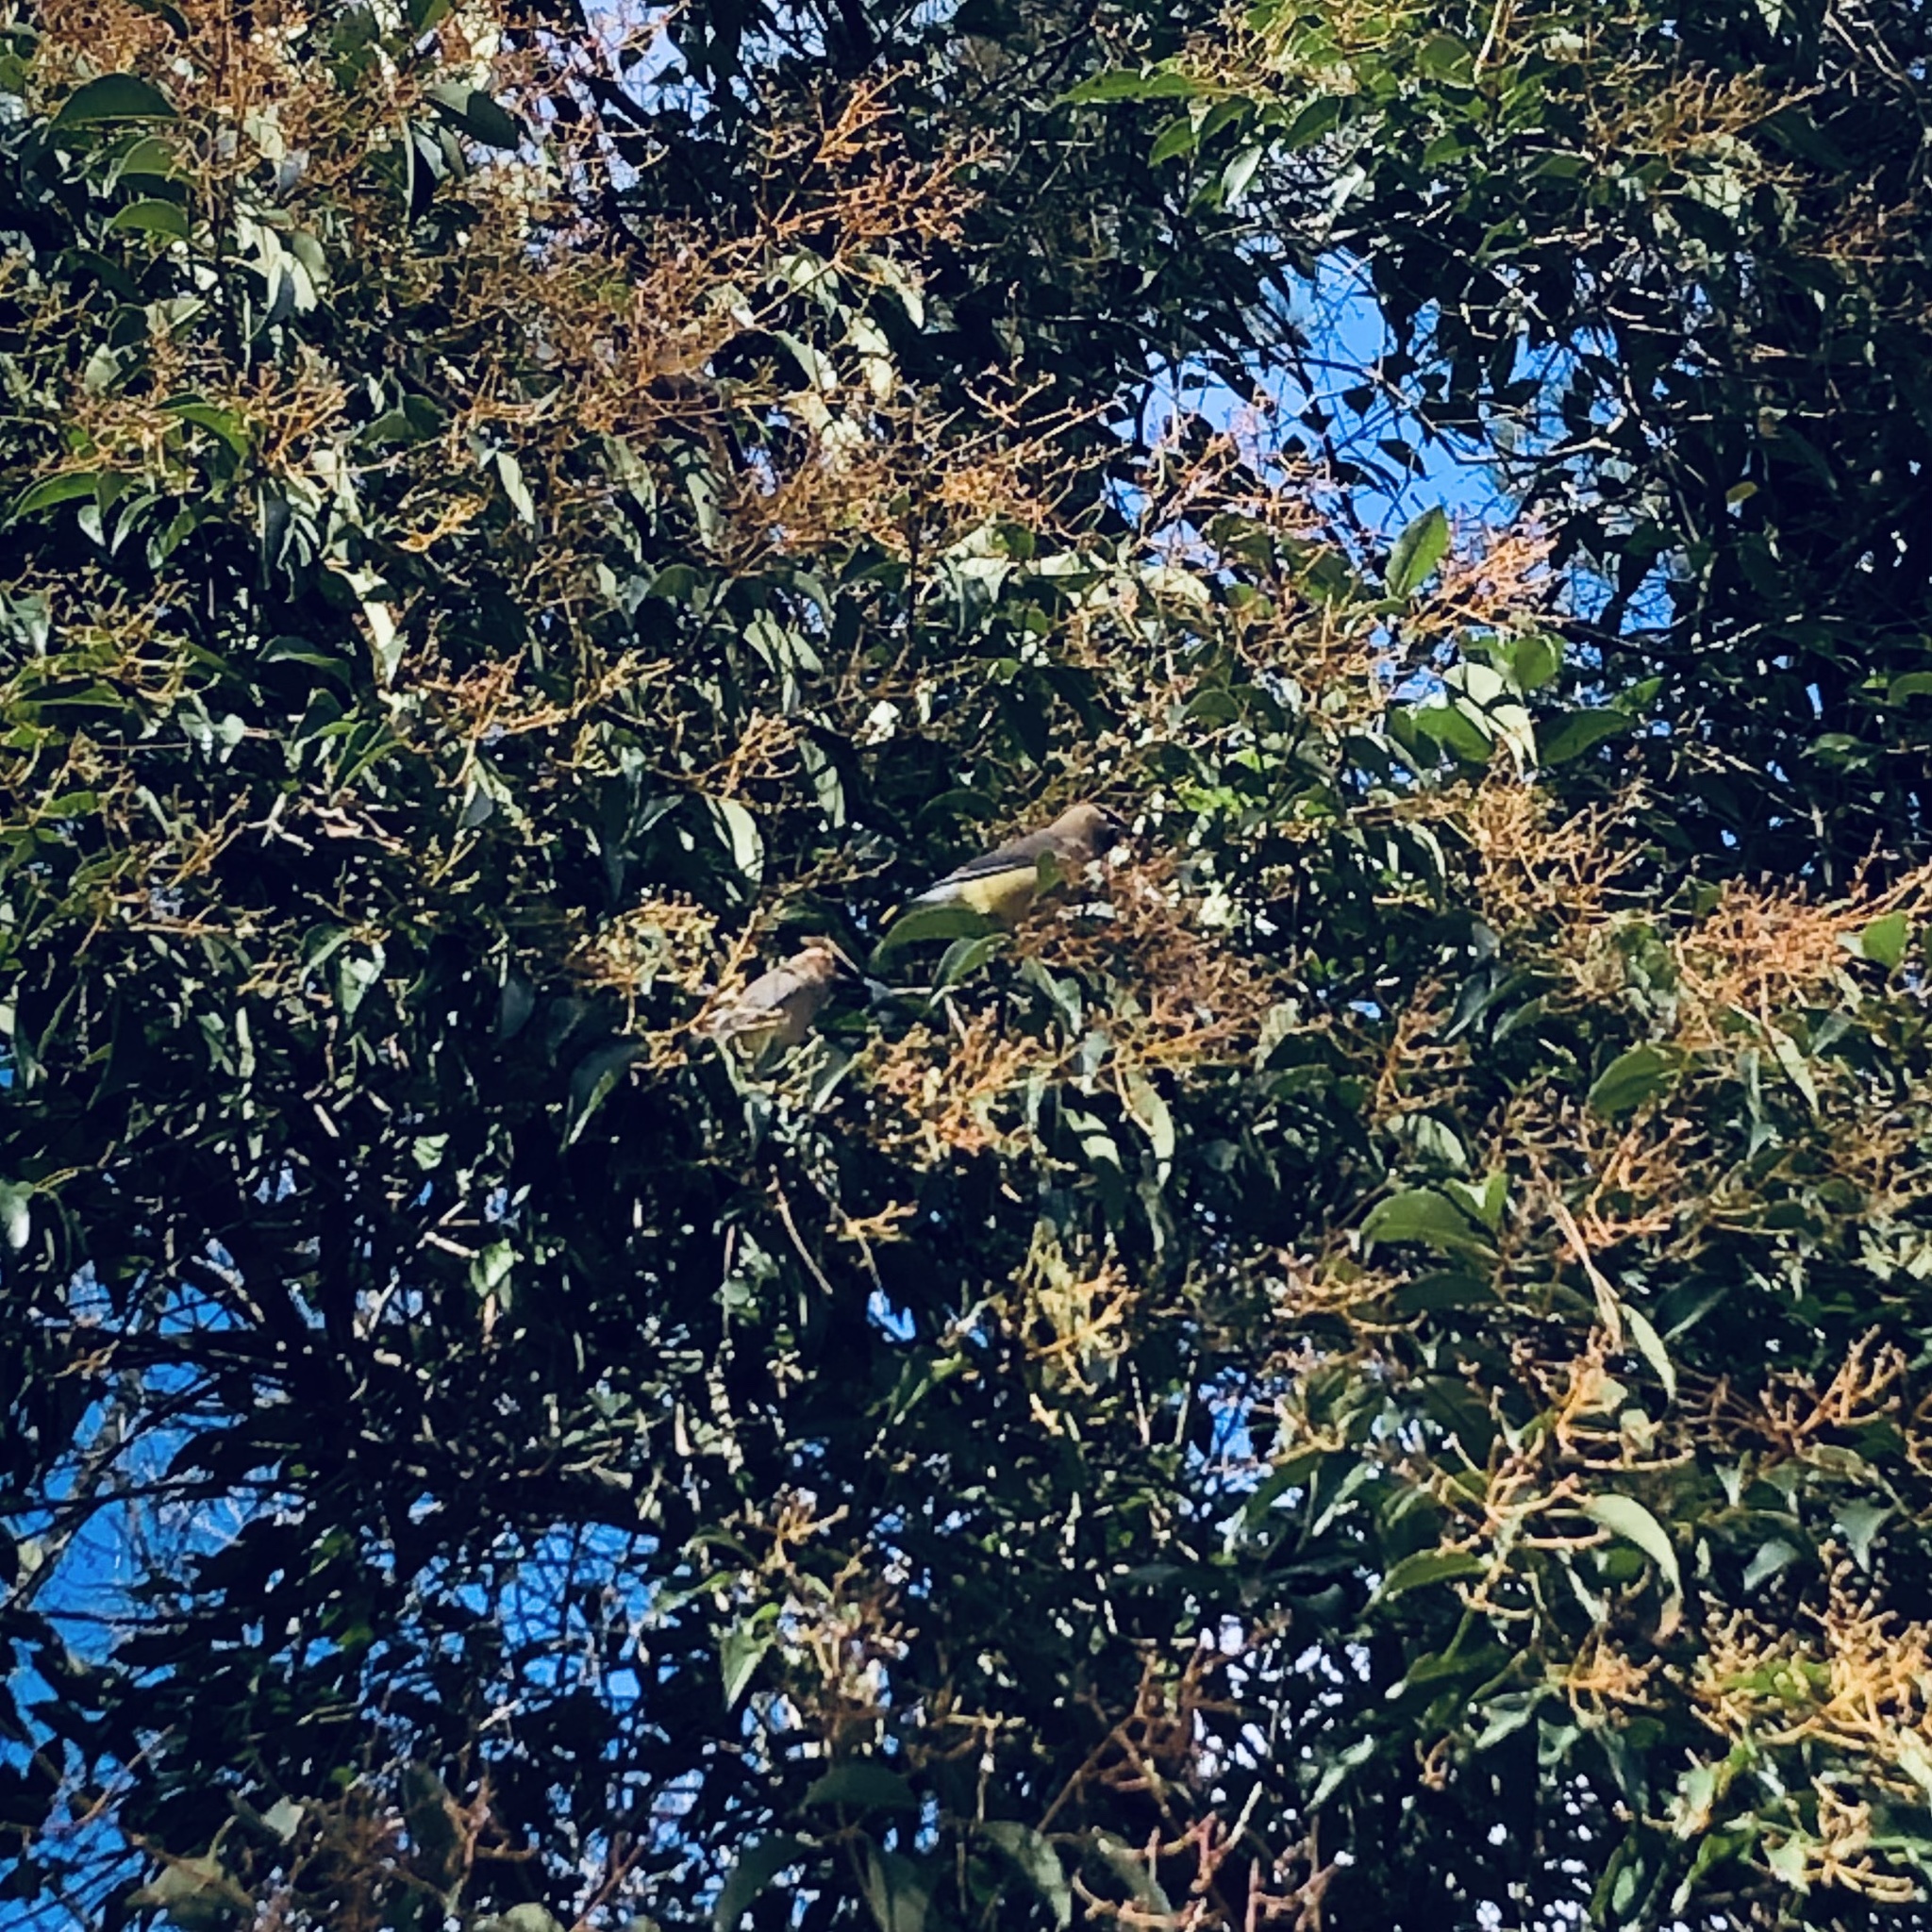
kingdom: Animalia
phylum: Chordata
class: Aves
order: Passeriformes
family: Bombycillidae
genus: Bombycilla
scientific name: Bombycilla cedrorum
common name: Cedar waxwing
